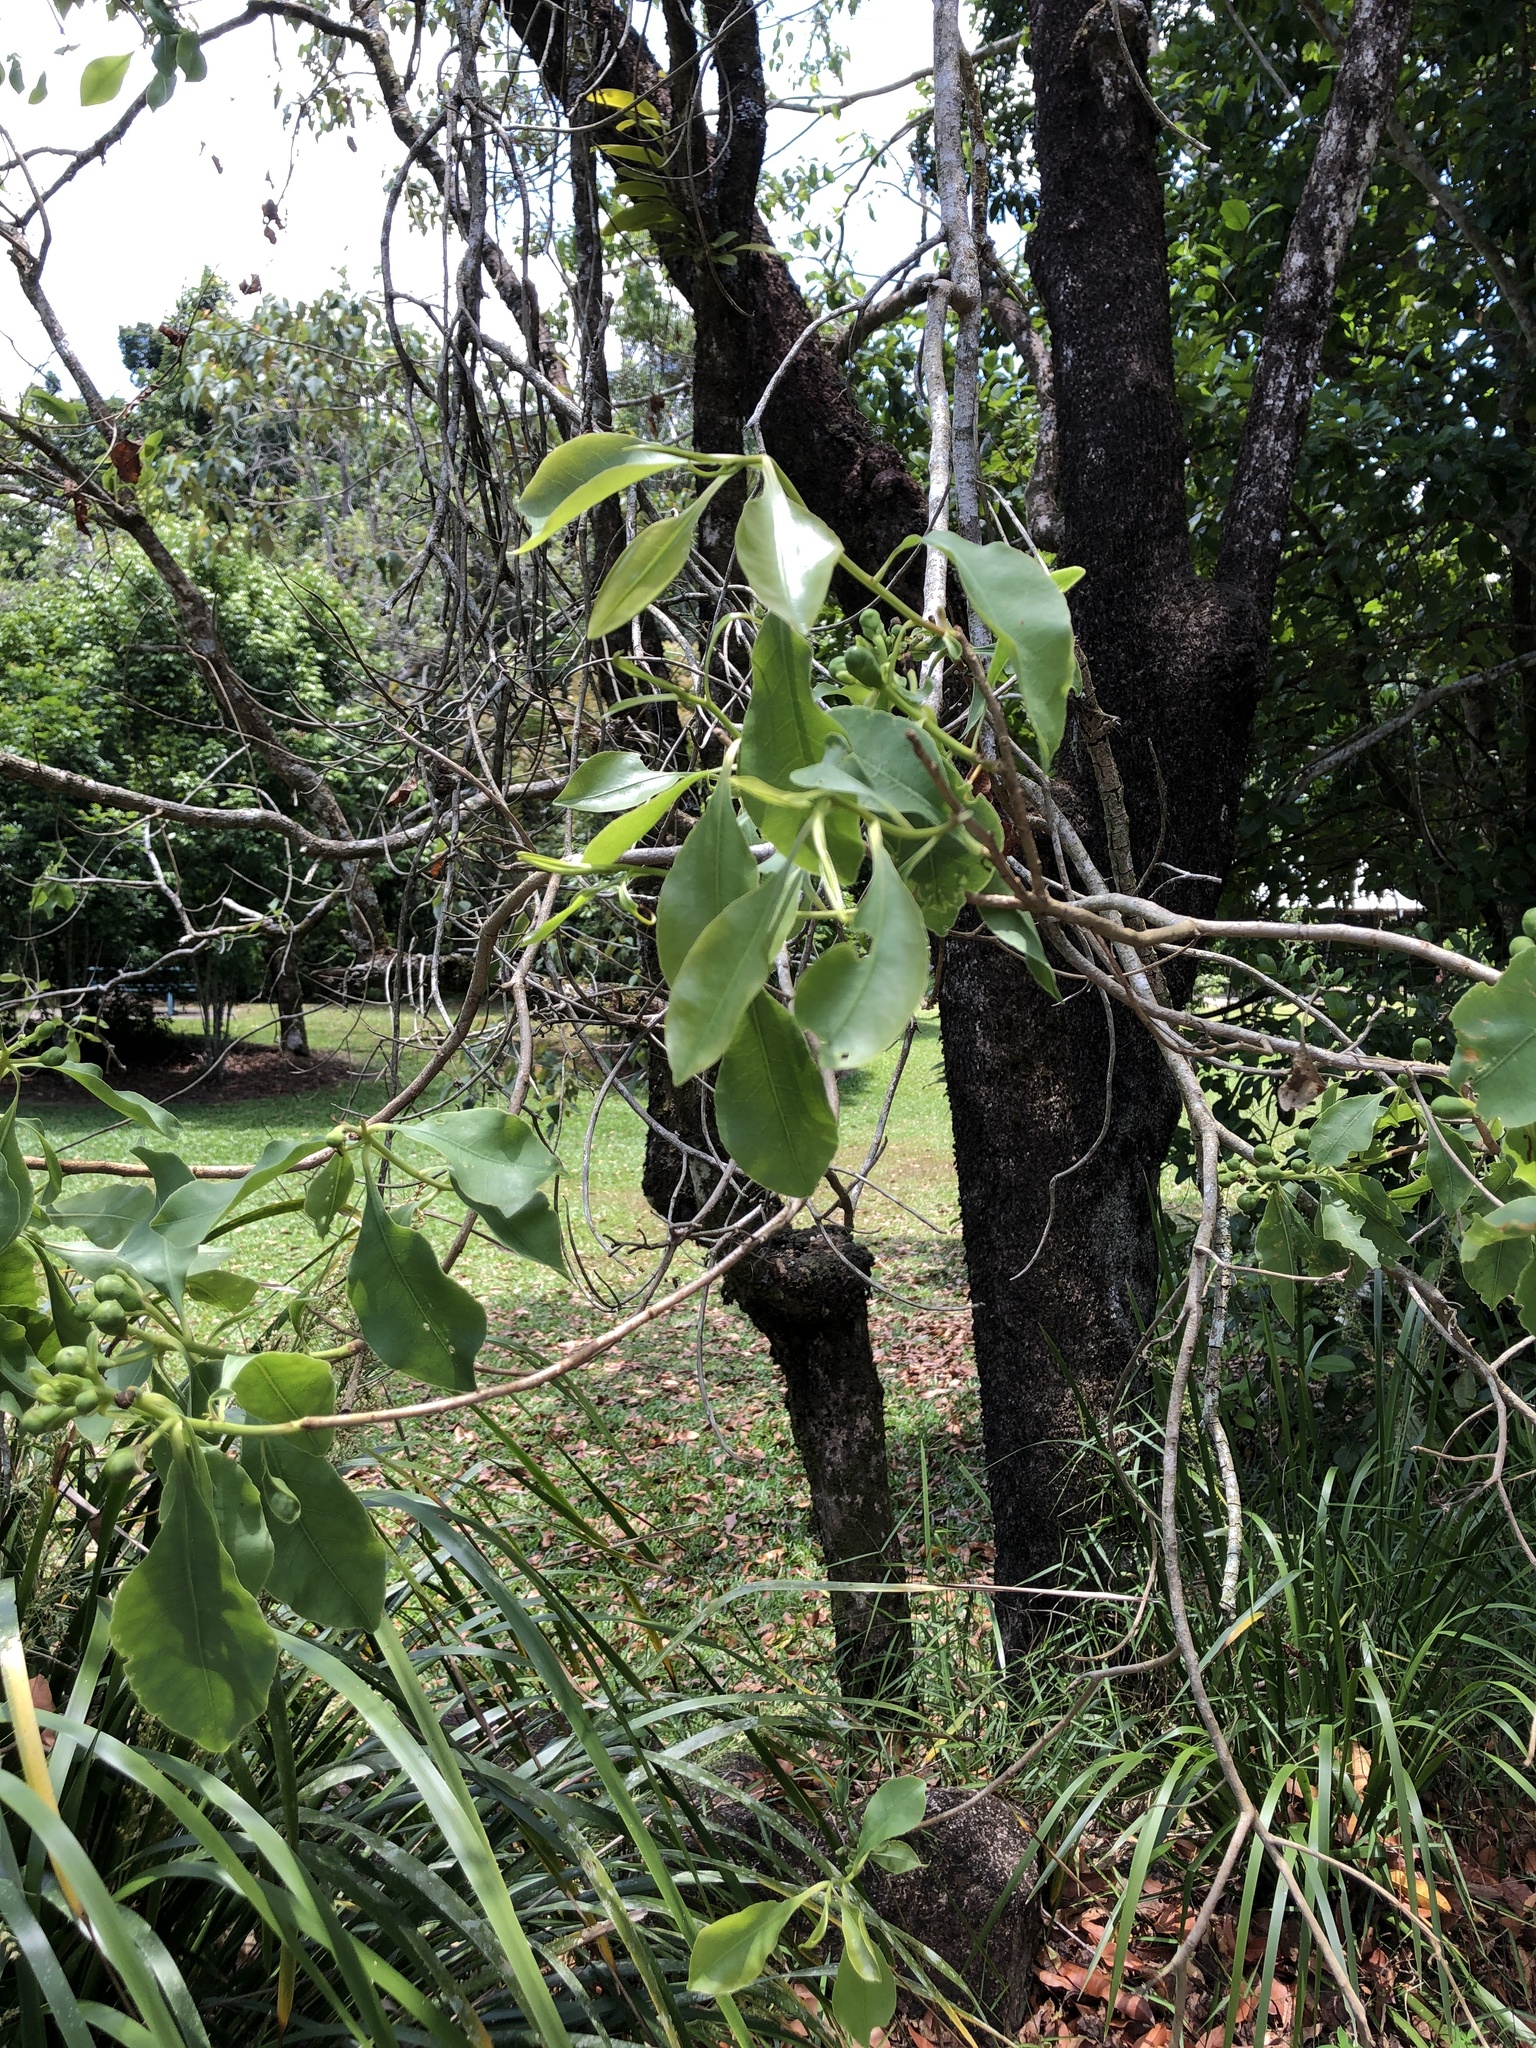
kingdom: Plantae
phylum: Tracheophyta
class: Magnoliopsida
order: Ericales
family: Lecythidaceae
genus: Planchonia
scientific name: Planchonia careya
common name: Cockatoo-apple
